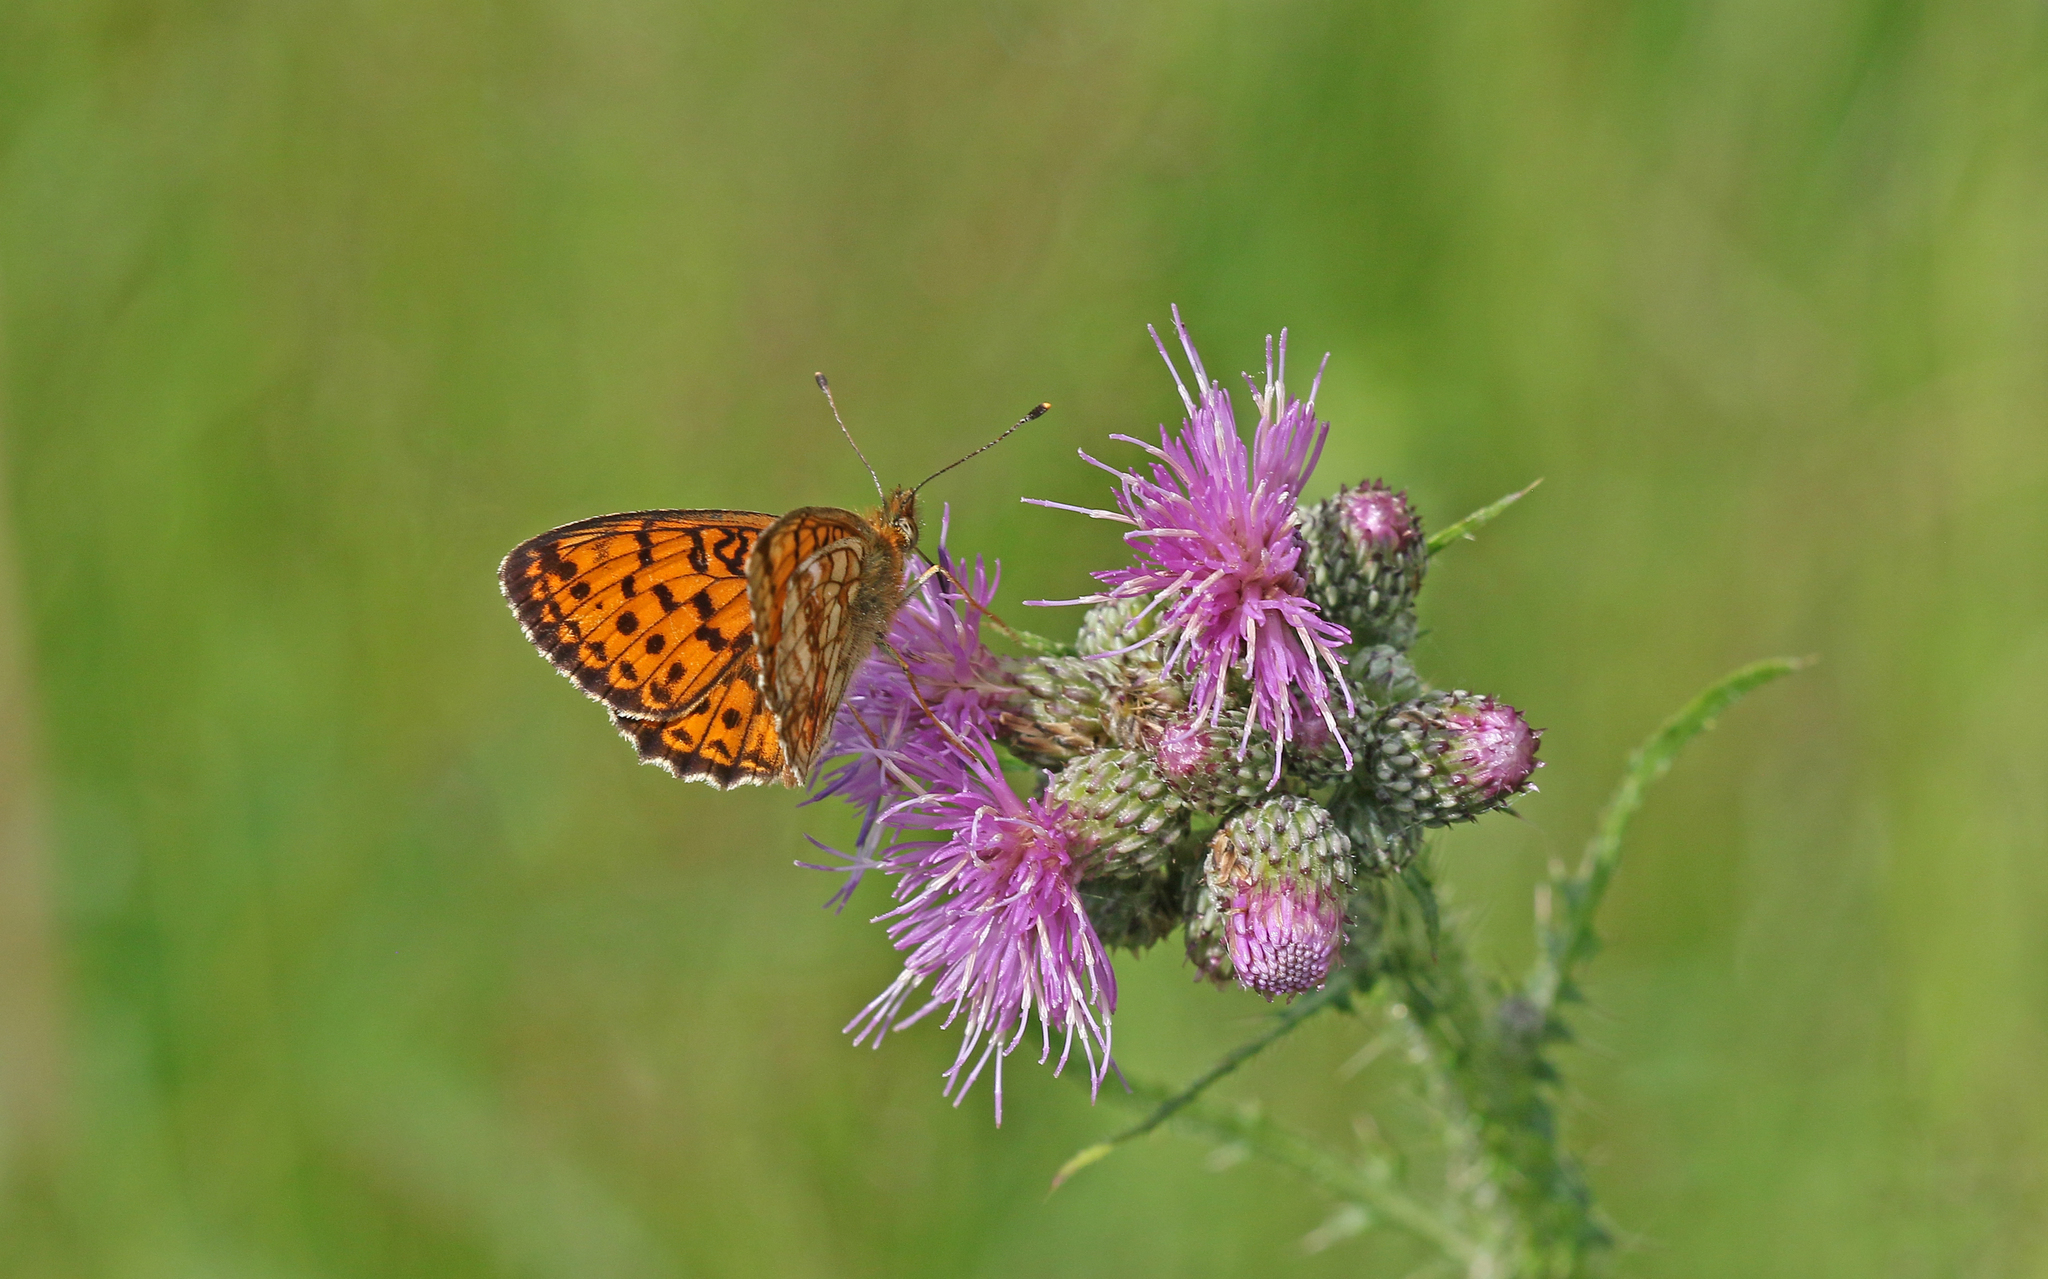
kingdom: Animalia
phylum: Arthropoda
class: Insecta
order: Lepidoptera
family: Nymphalidae
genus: Brenthis
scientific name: Brenthis ino
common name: Lesser marbled fritillary
